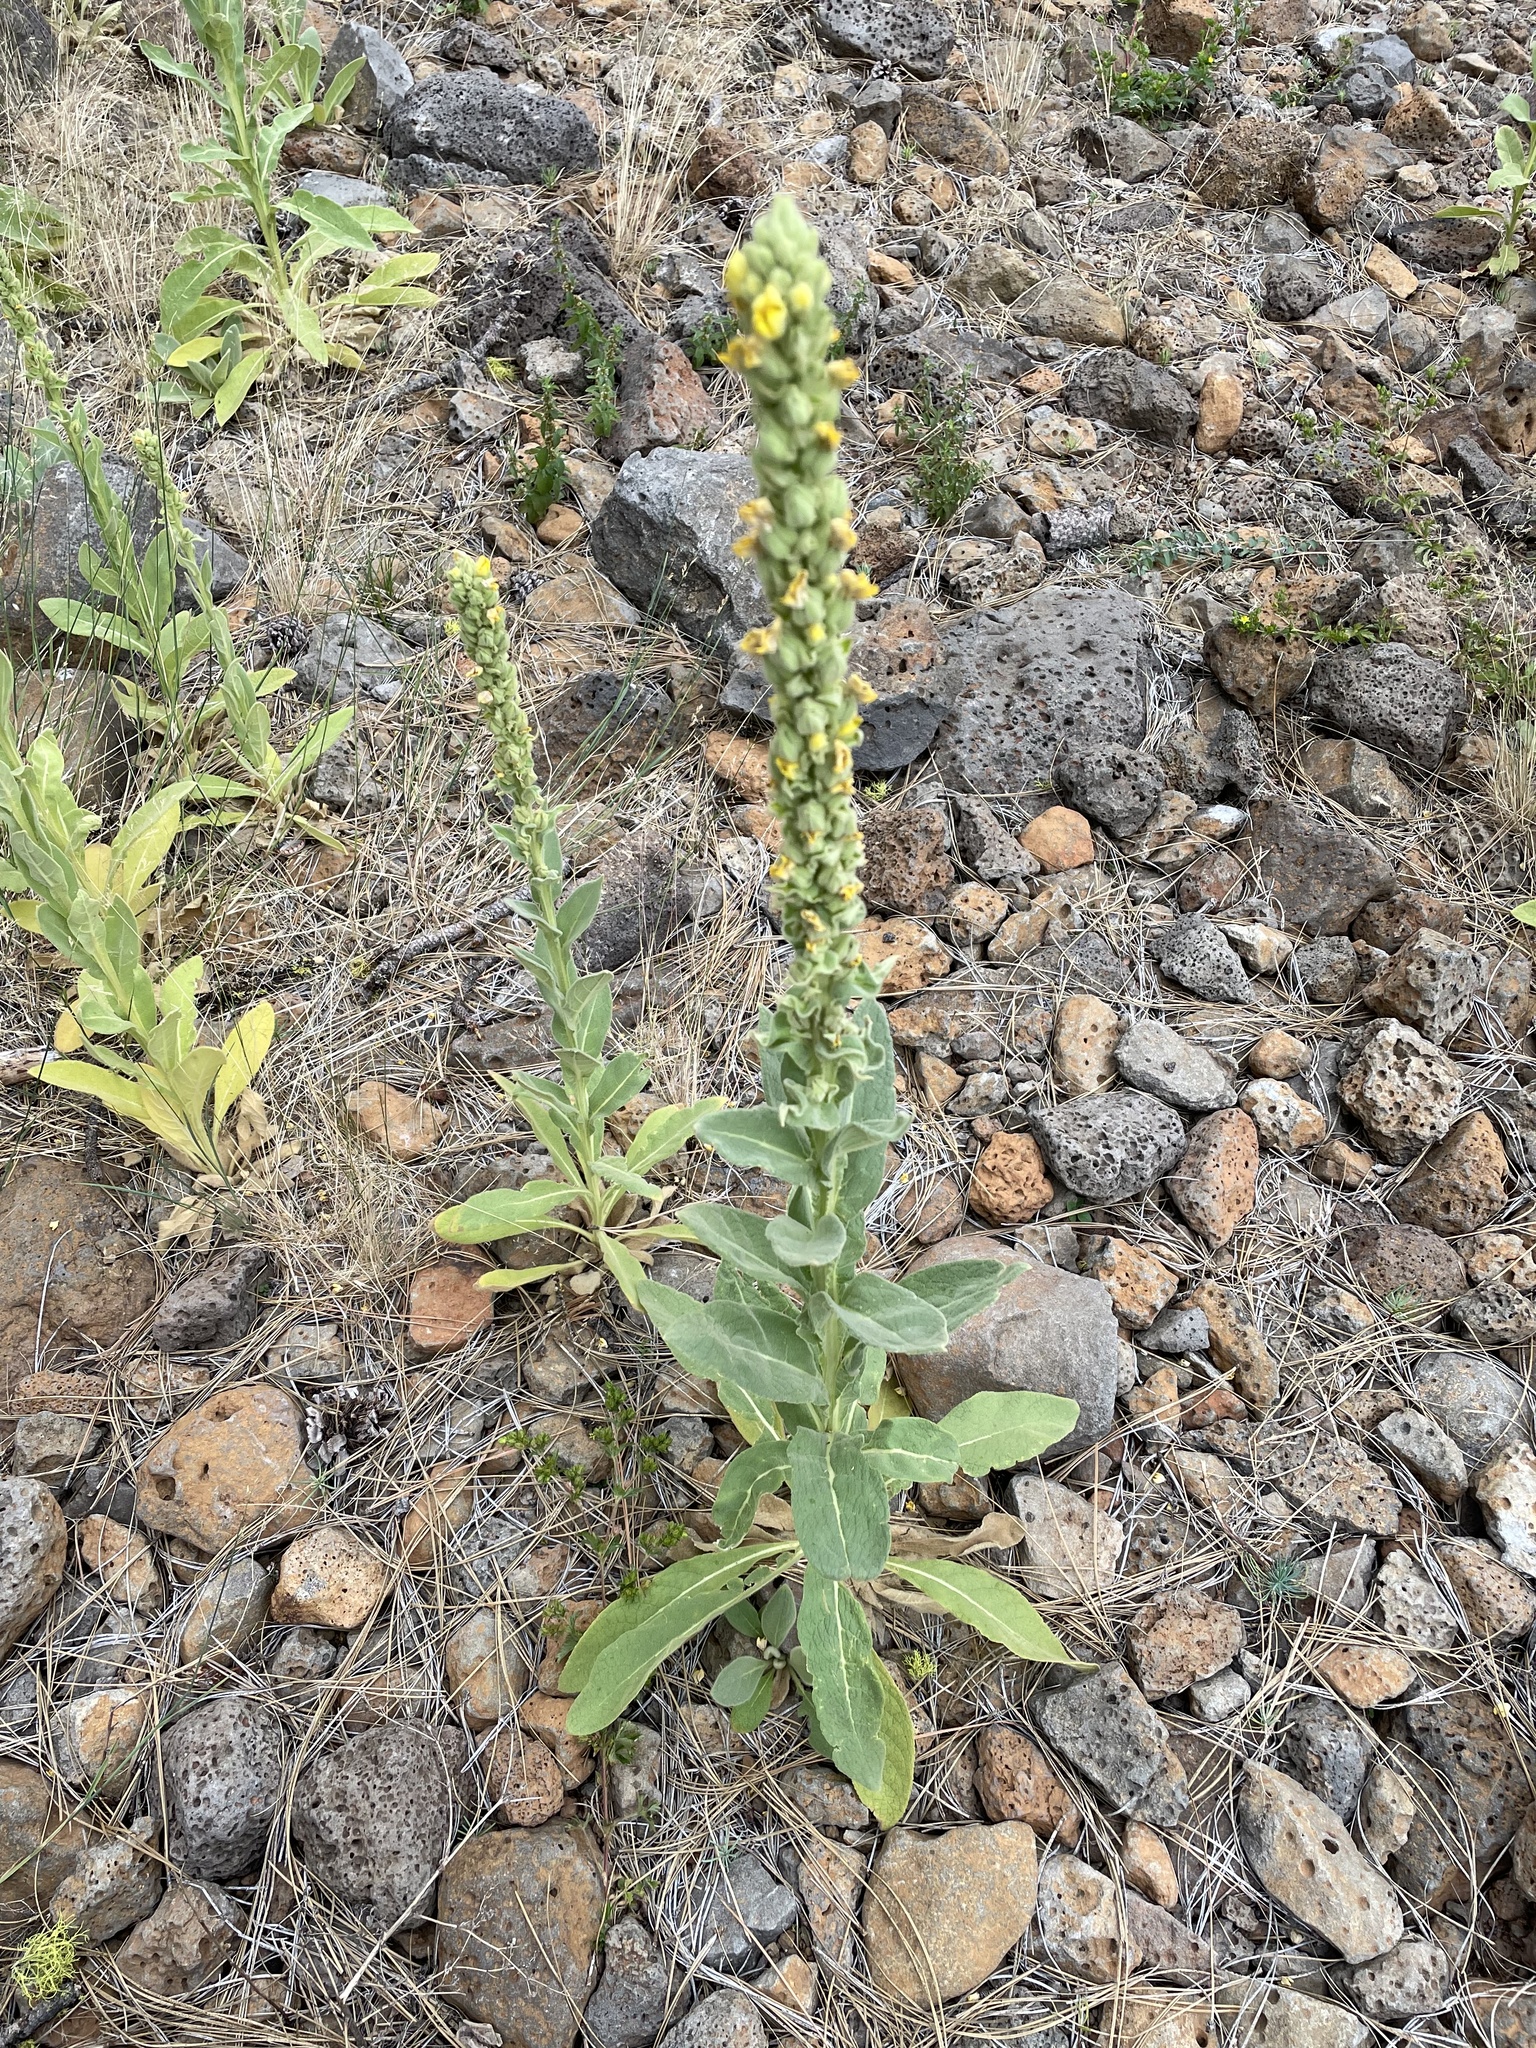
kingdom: Plantae
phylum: Tracheophyta
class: Magnoliopsida
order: Lamiales
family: Scrophulariaceae
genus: Verbascum
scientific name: Verbascum thapsus
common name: Common mullein
